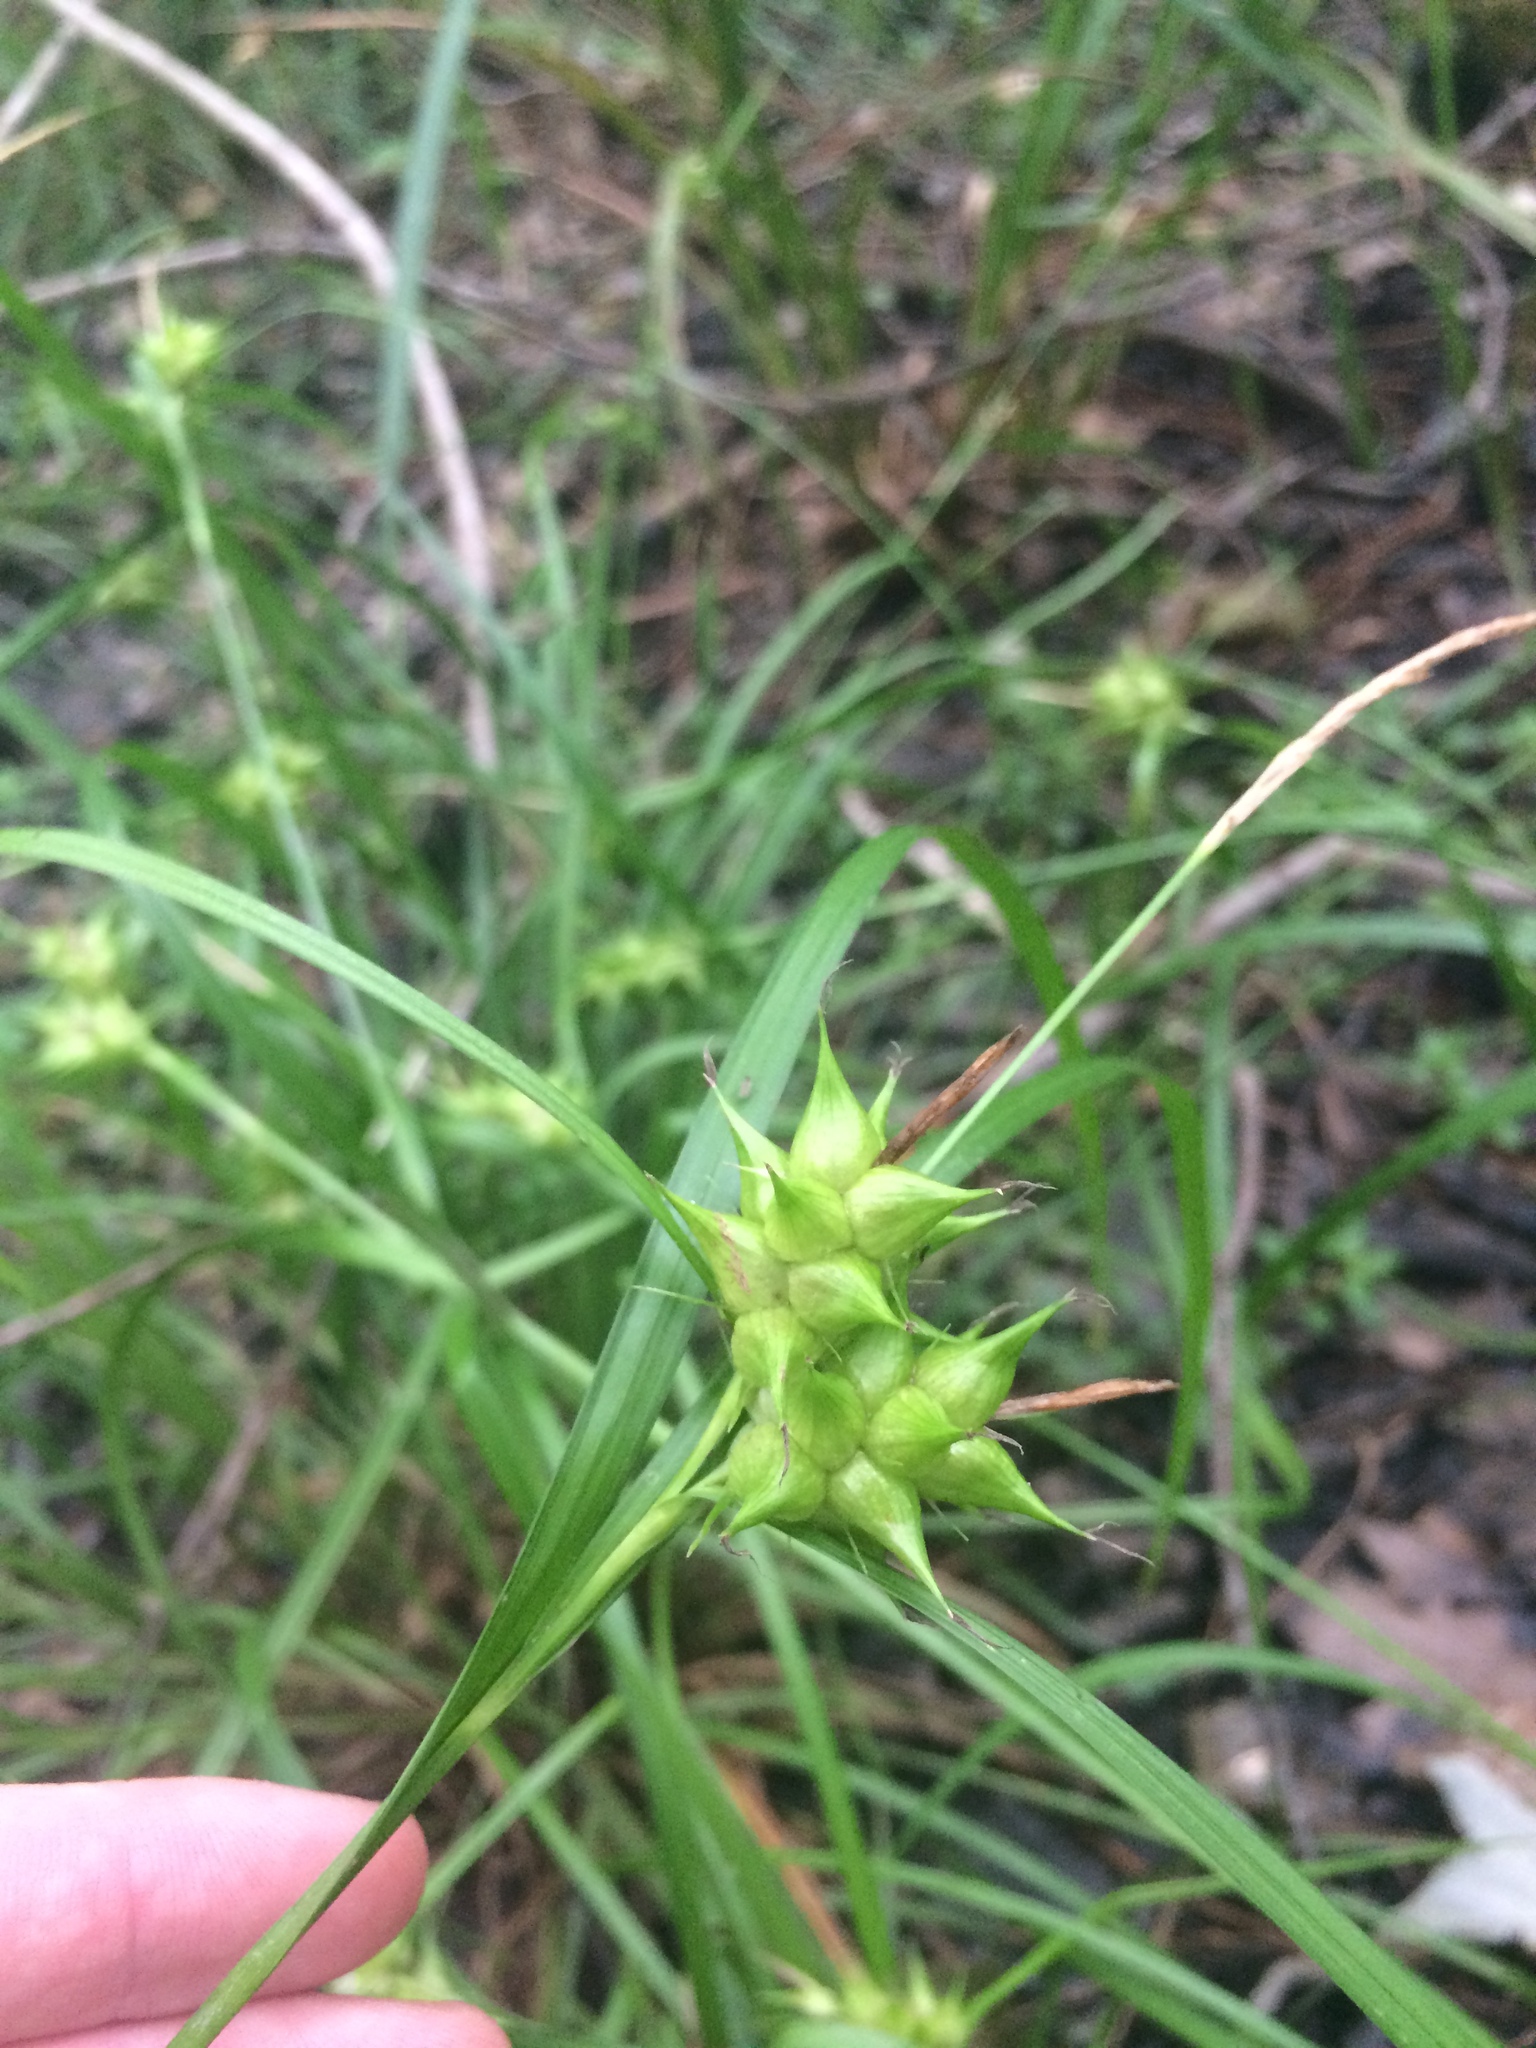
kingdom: Plantae
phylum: Tracheophyta
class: Liliopsida
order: Poales
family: Cyperaceae
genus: Carex
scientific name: Carex intumescens
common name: Greater bladder sedge
